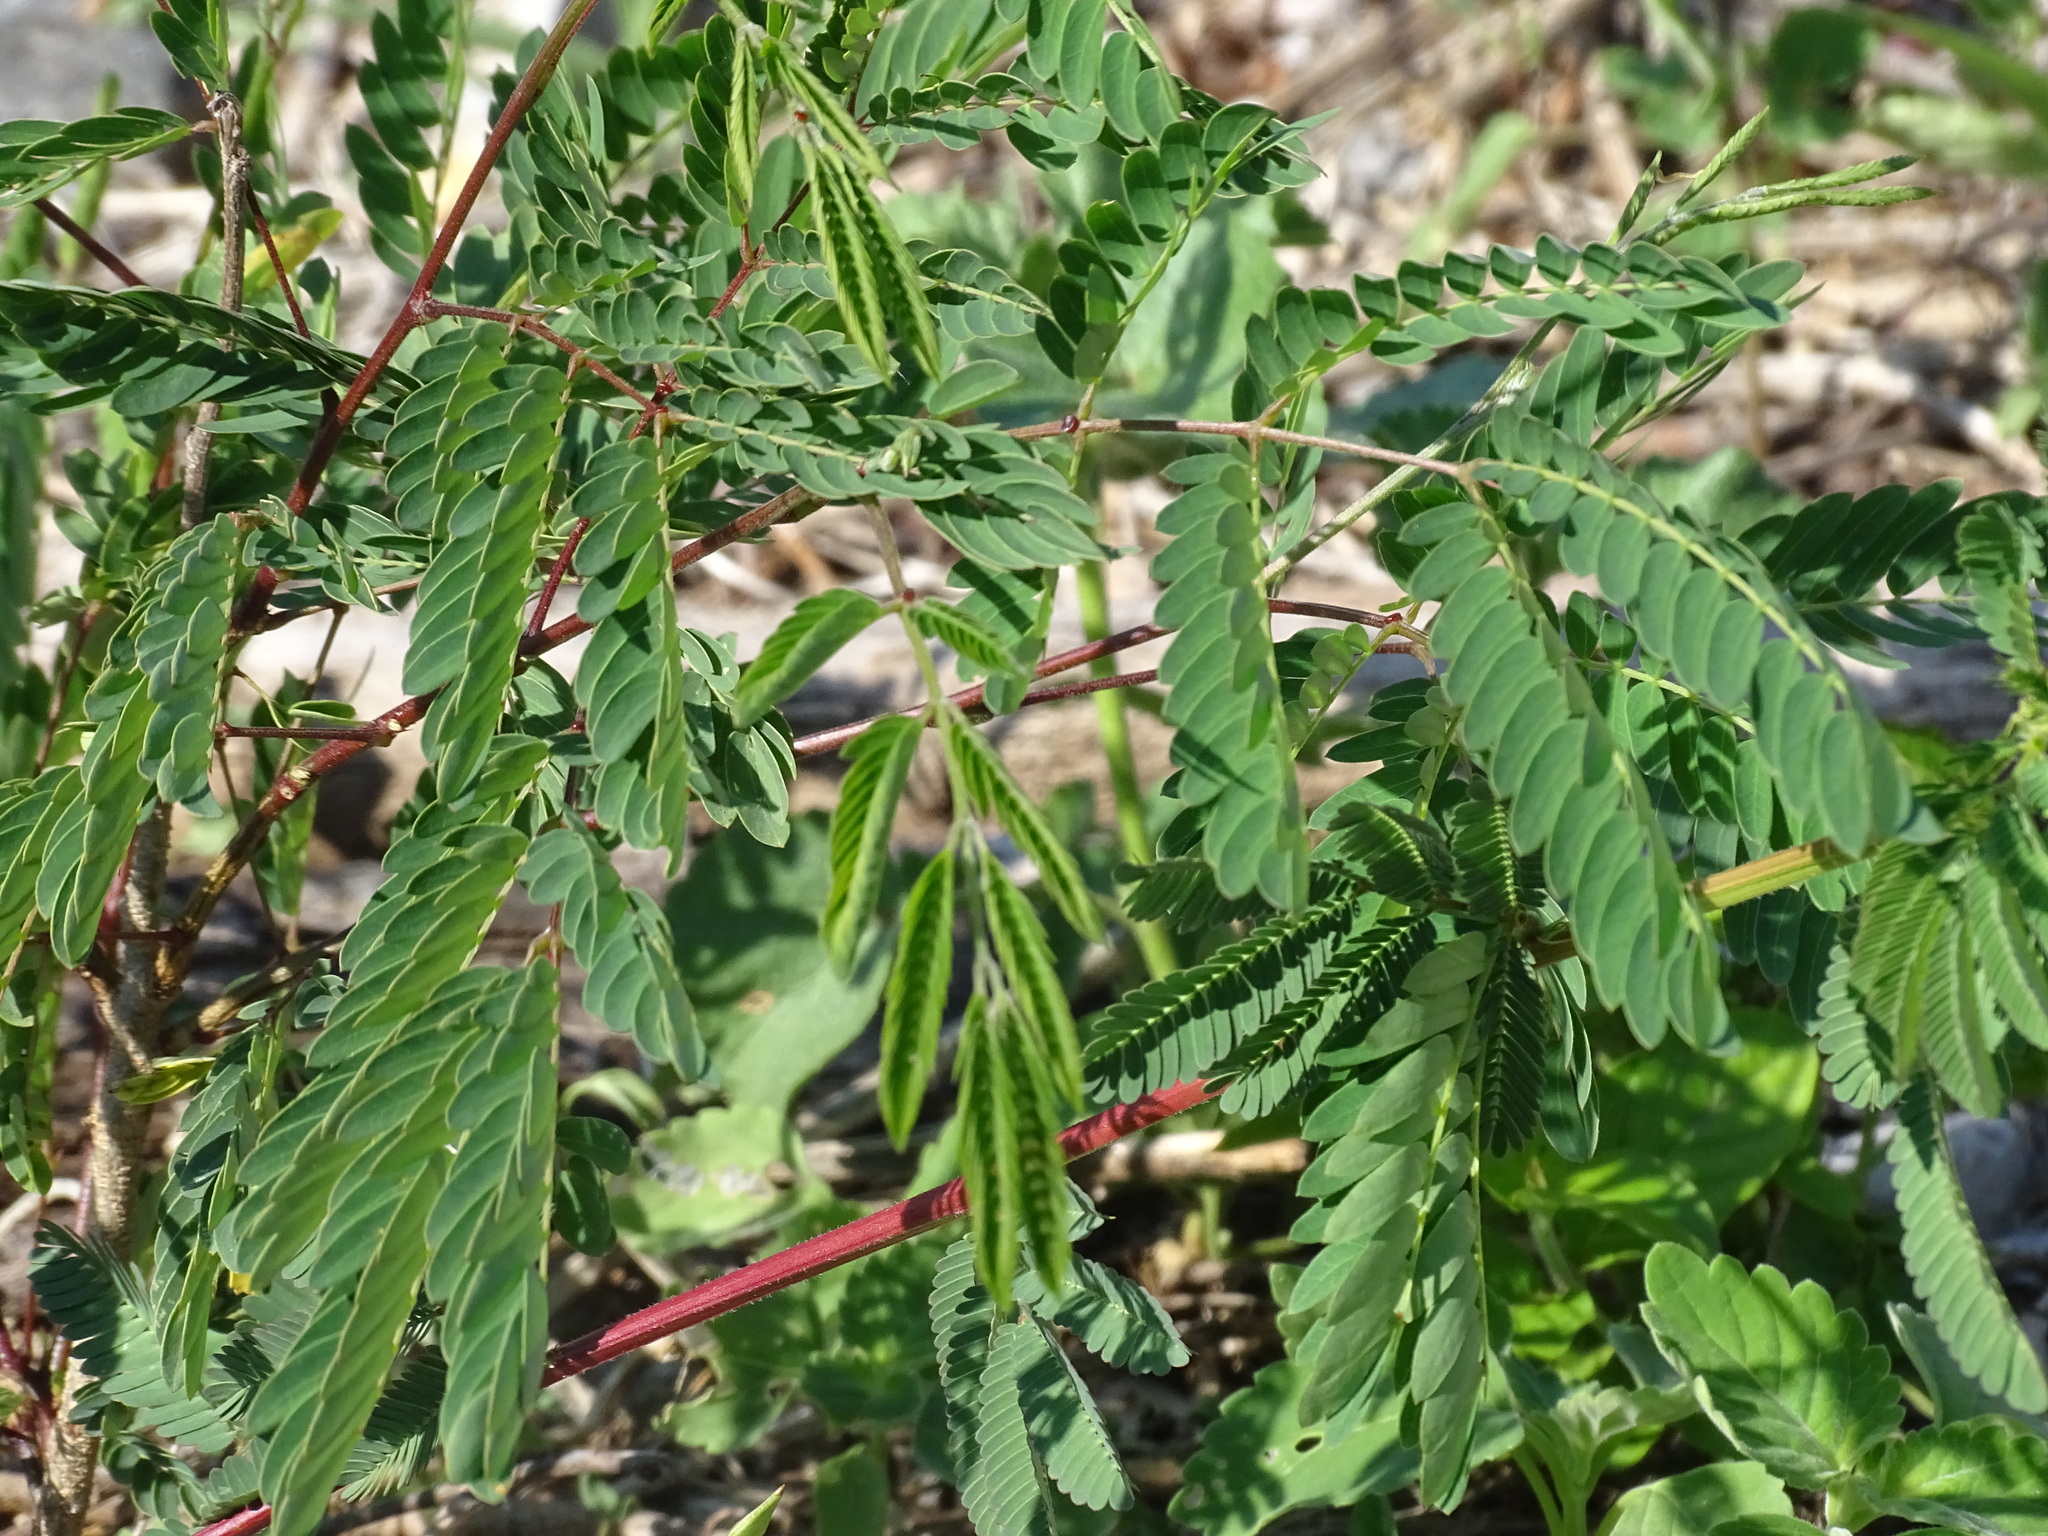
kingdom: Plantae
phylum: Tracheophyta
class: Magnoliopsida
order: Fabales
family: Fabaceae
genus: Leucaena
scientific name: Leucaena leucocephala
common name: White leadtree
